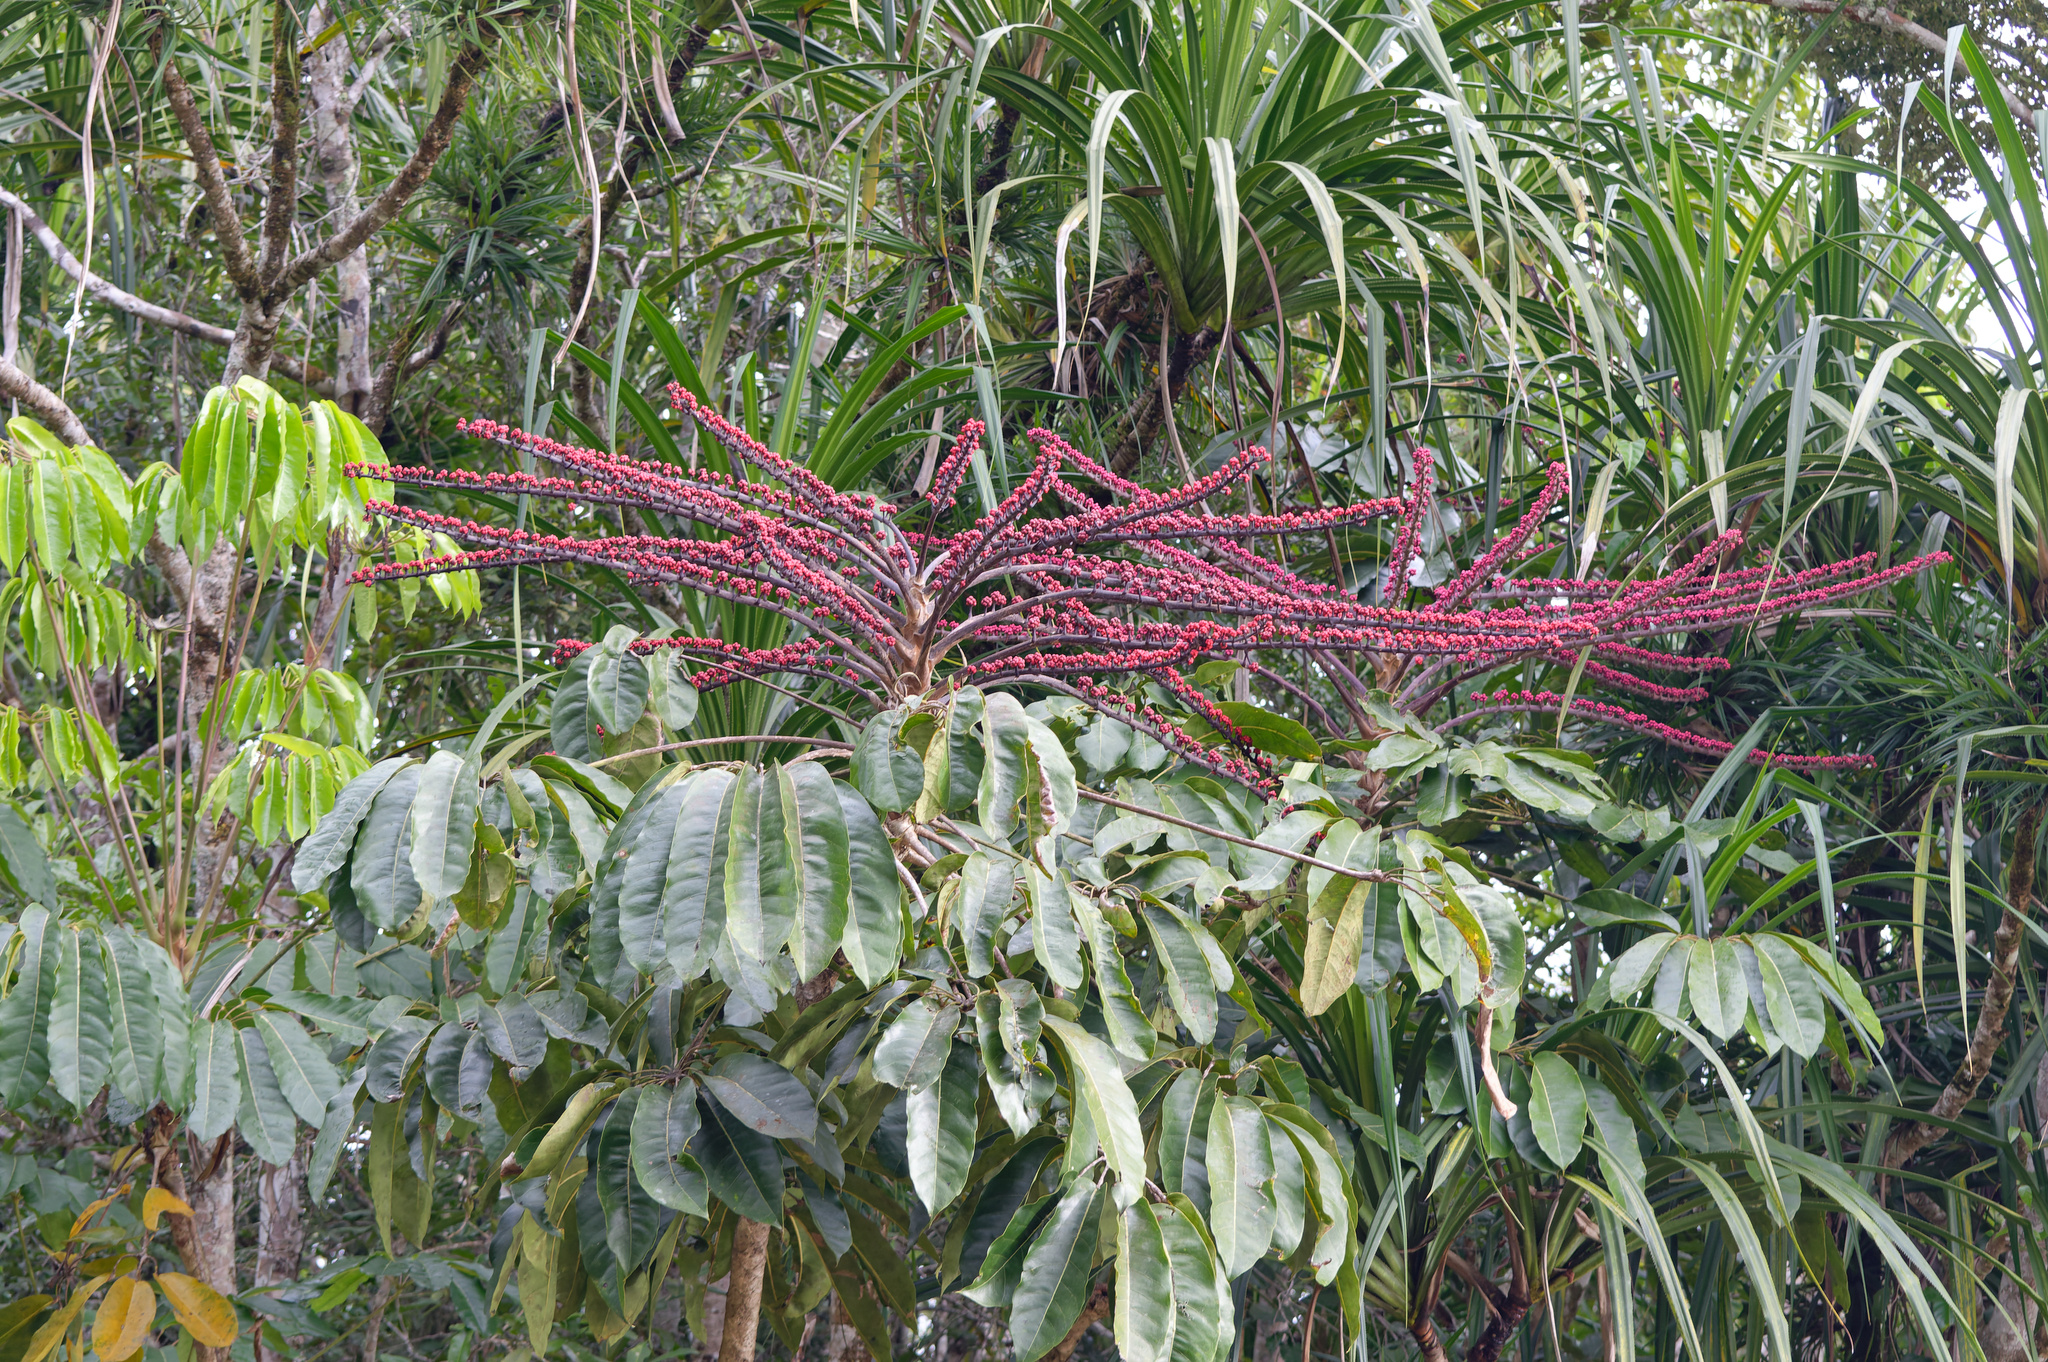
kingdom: Plantae
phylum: Tracheophyta
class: Magnoliopsida
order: Apiales
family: Araliaceae
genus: Heptapleurum
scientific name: Heptapleurum actinophyllum
